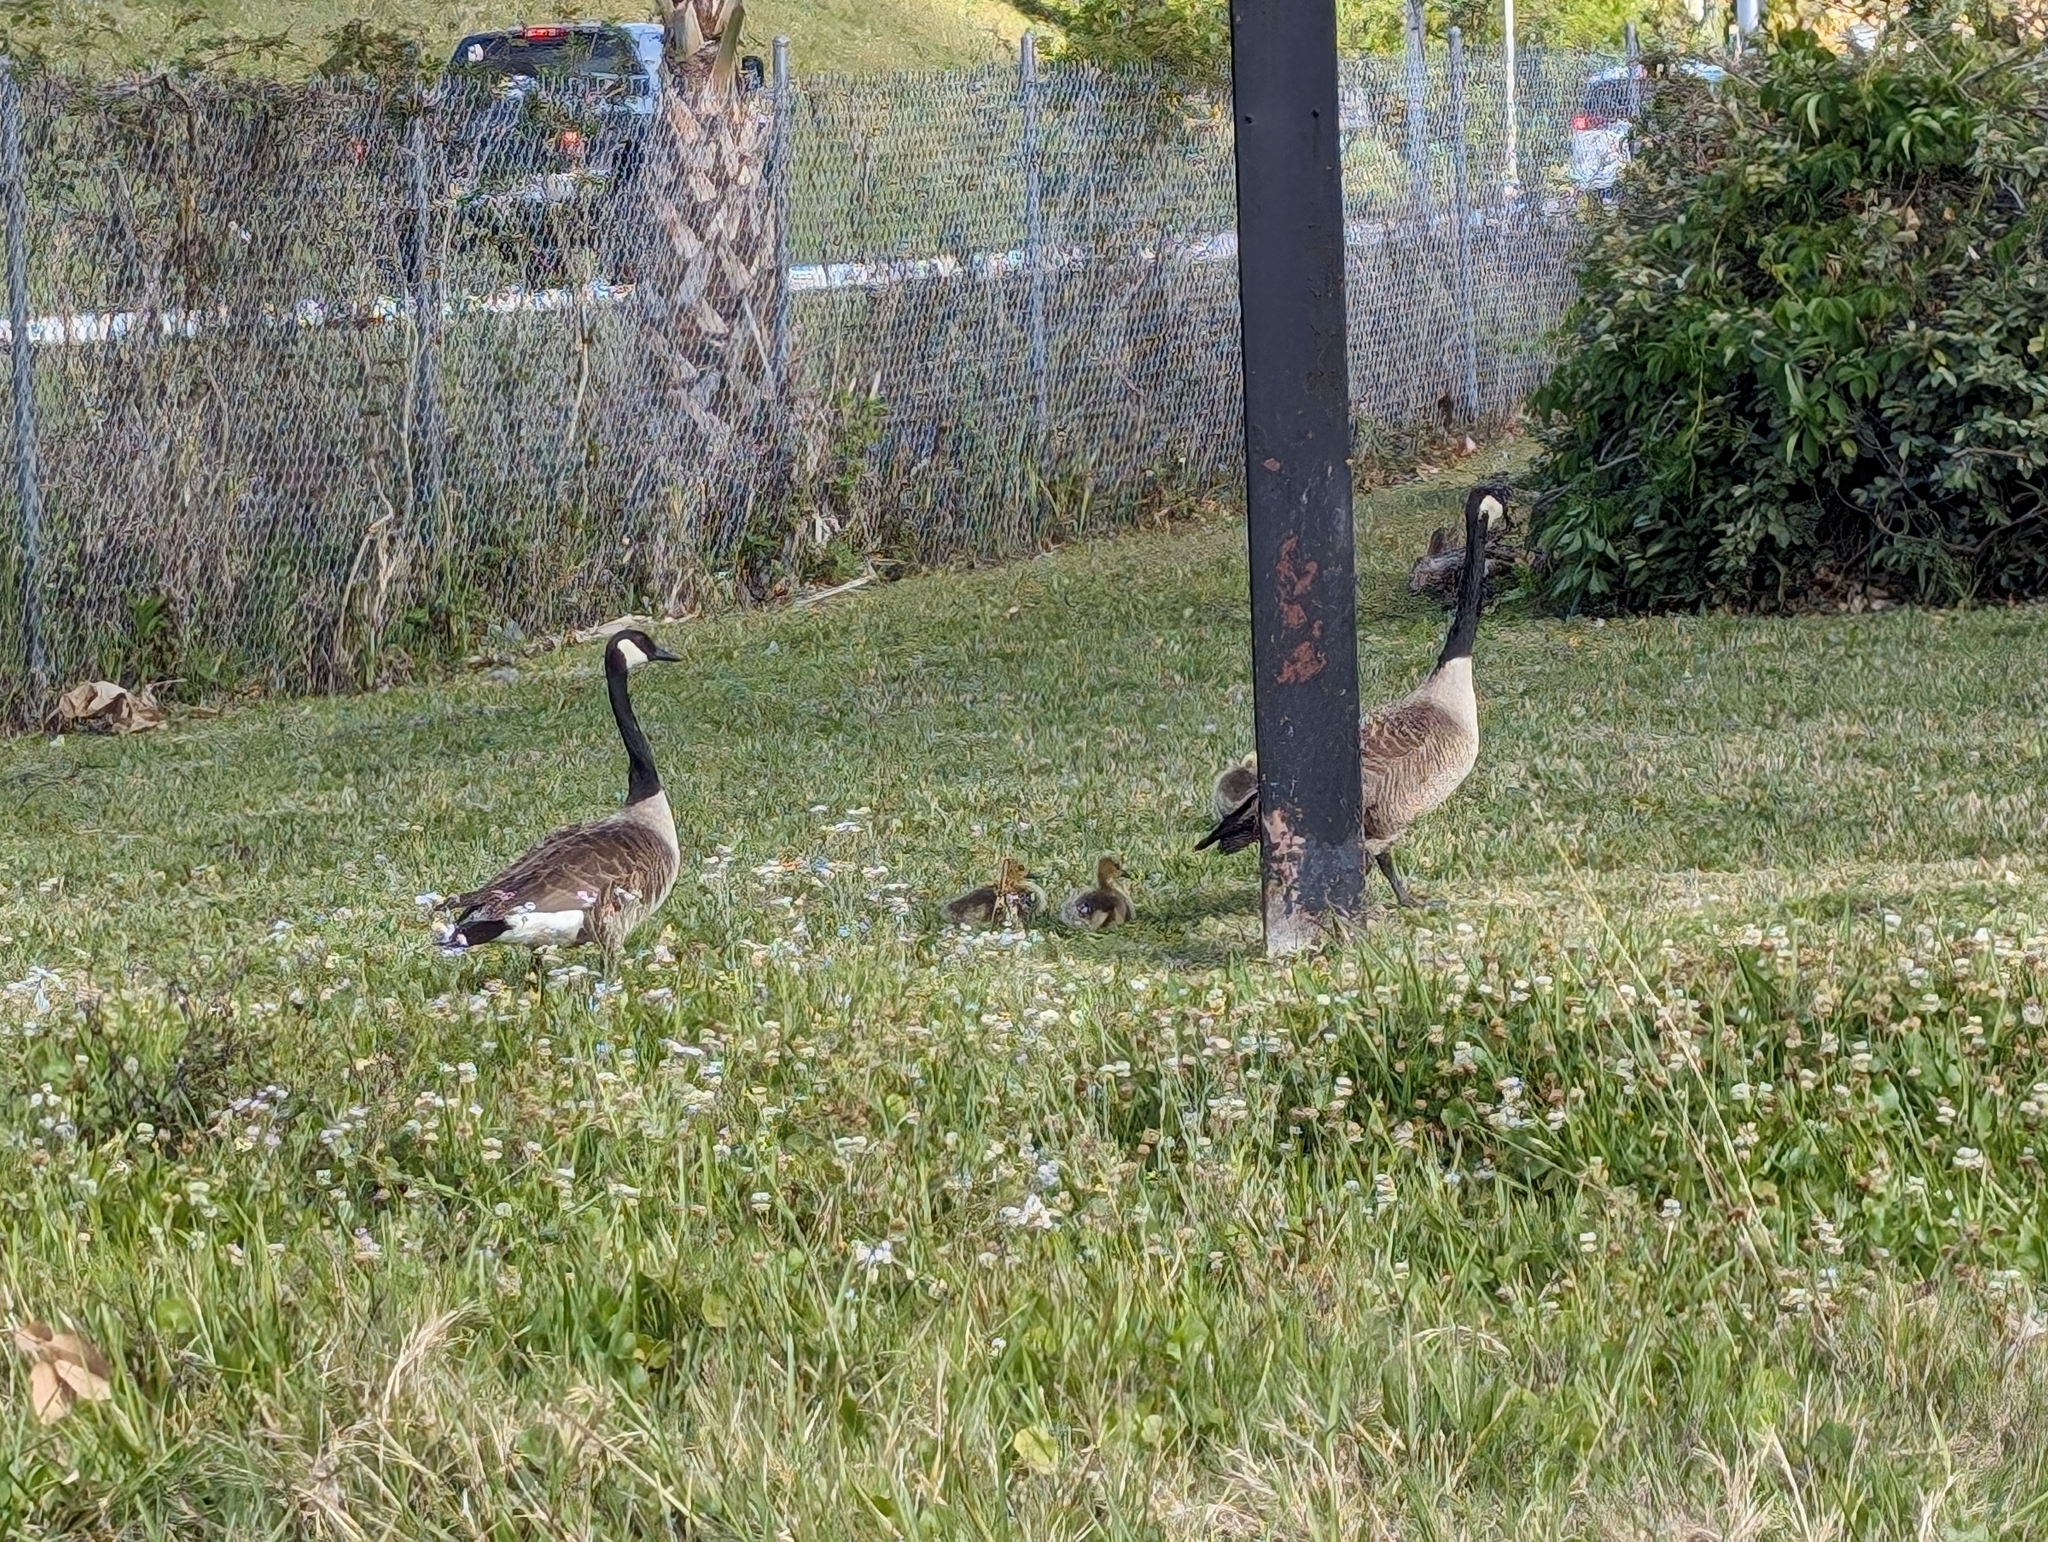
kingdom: Animalia
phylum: Chordata
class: Aves
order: Anseriformes
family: Anatidae
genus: Branta
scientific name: Branta canadensis
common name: Canada goose
